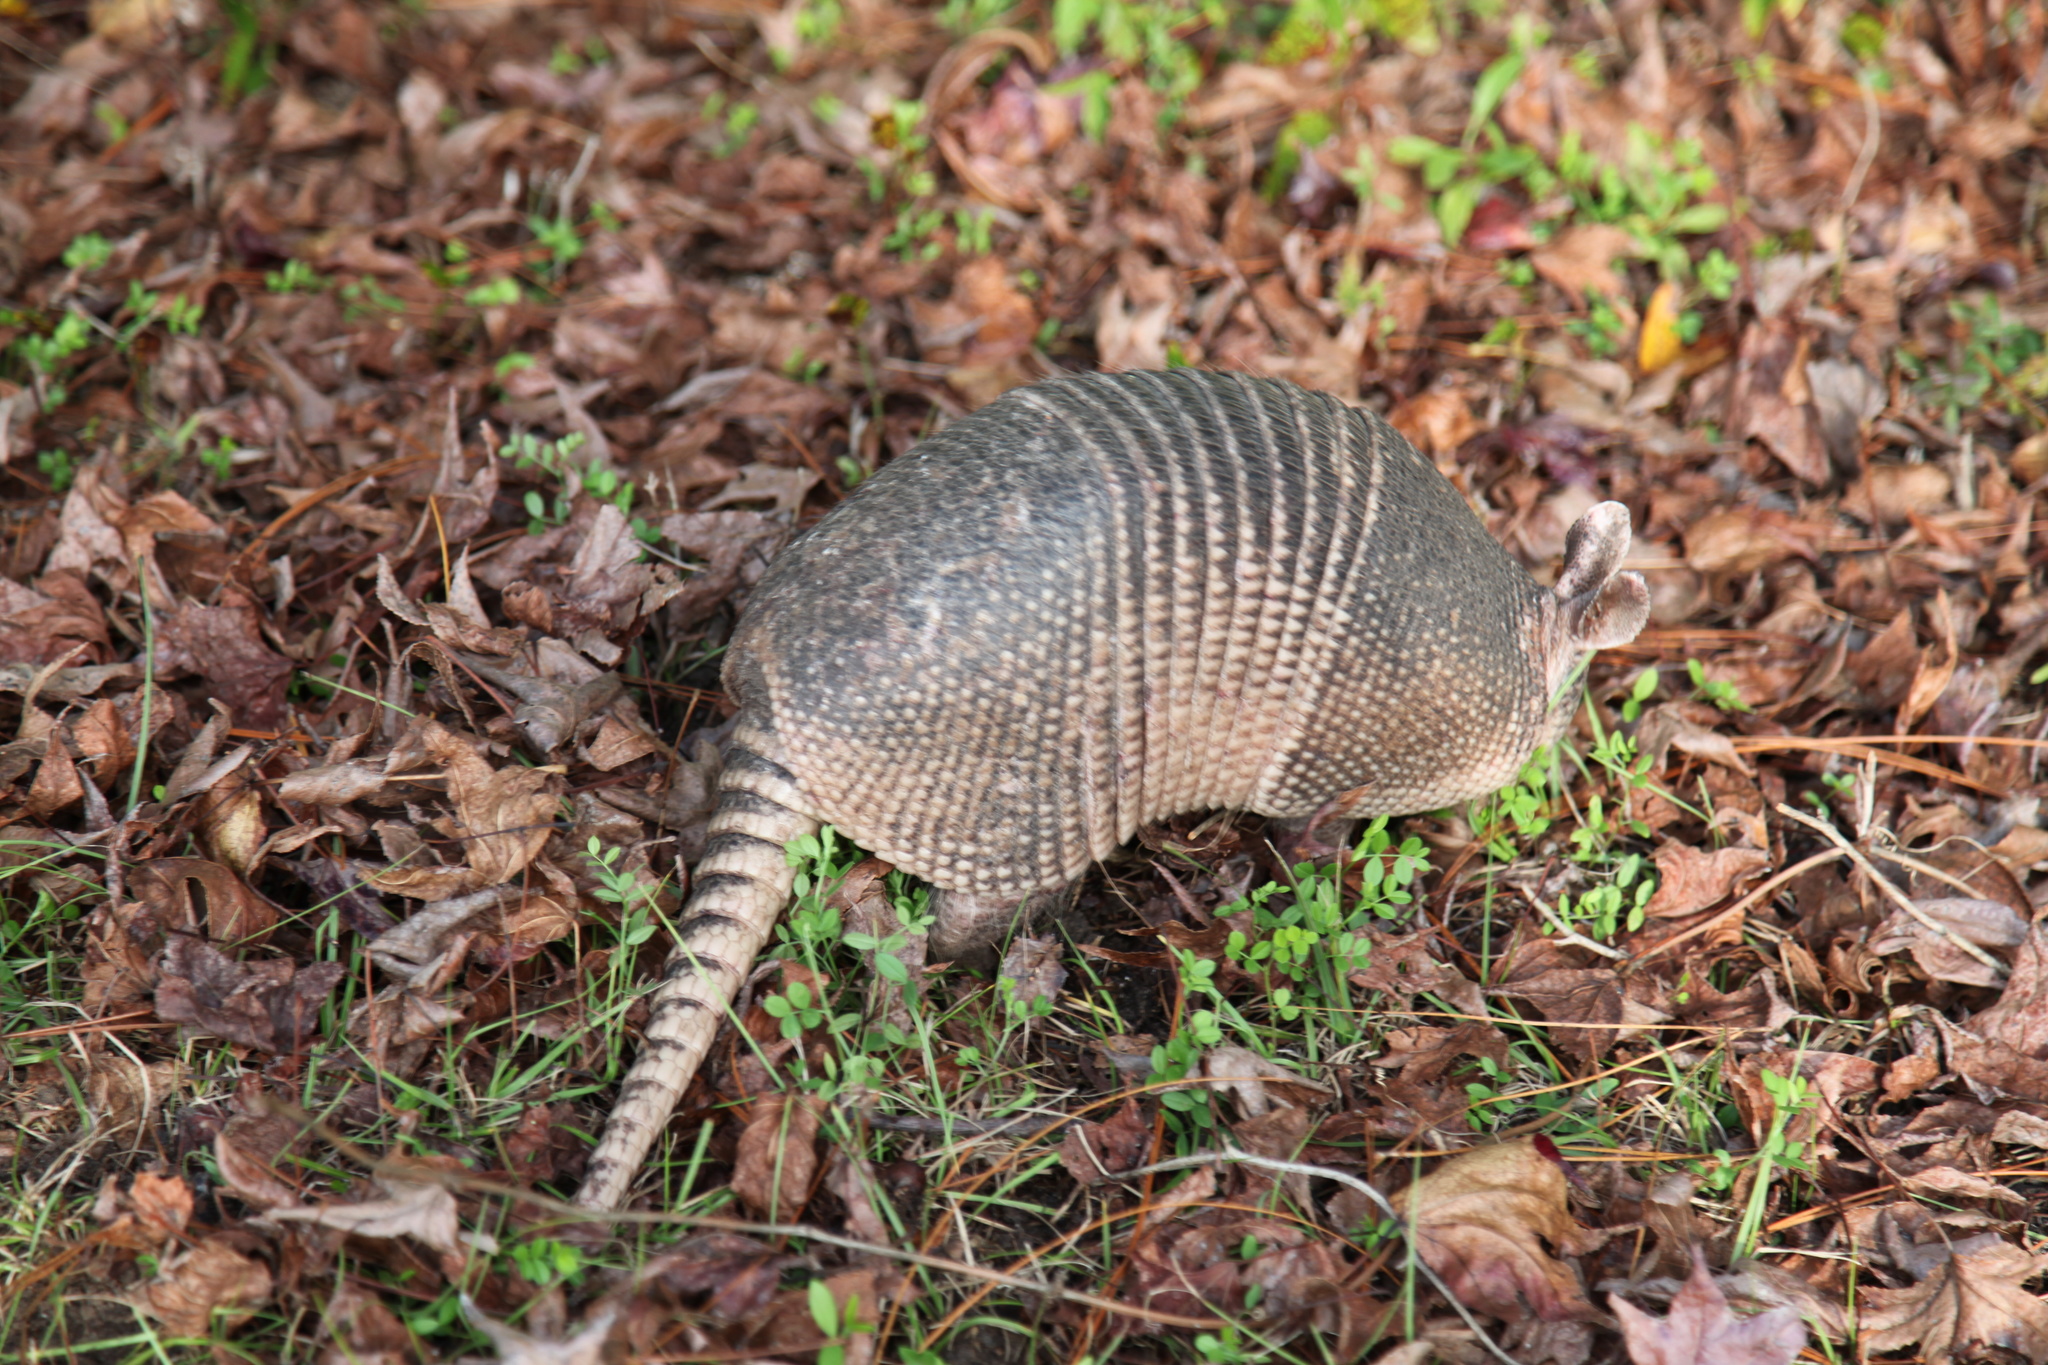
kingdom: Animalia
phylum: Chordata
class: Mammalia
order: Cingulata
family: Dasypodidae
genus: Dasypus
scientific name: Dasypus novemcinctus
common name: Nine-banded armadillo
